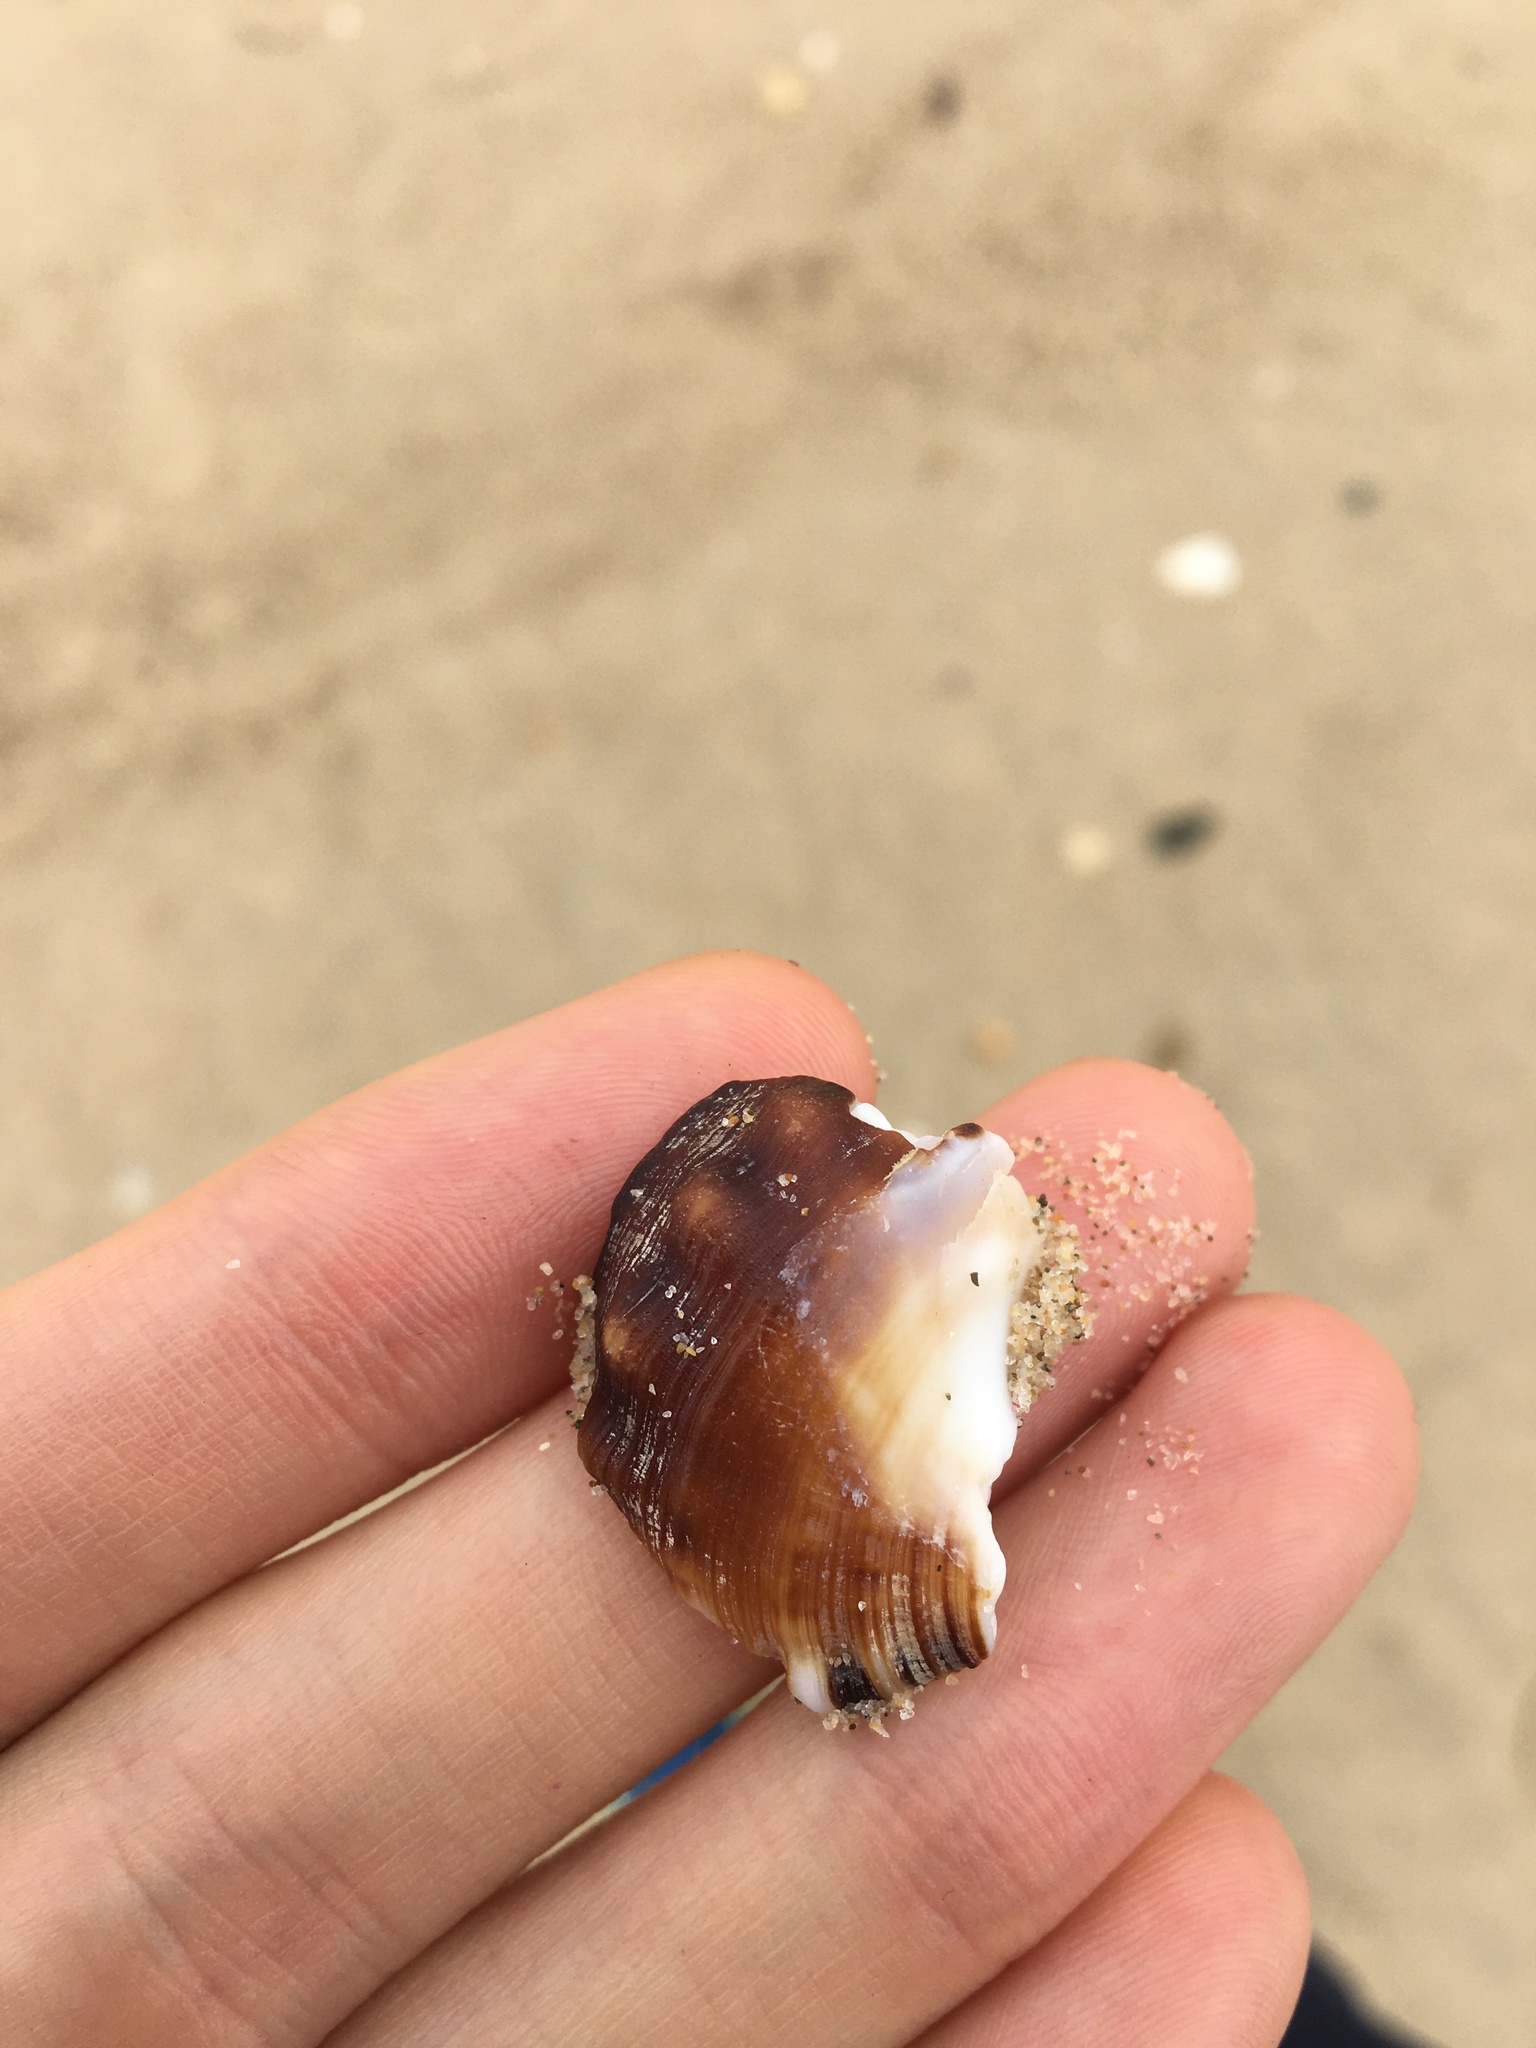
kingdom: Animalia
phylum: Mollusca
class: Gastropoda
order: Littorinimorpha
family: Ranellidae
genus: Ranella
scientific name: Ranella australasia
